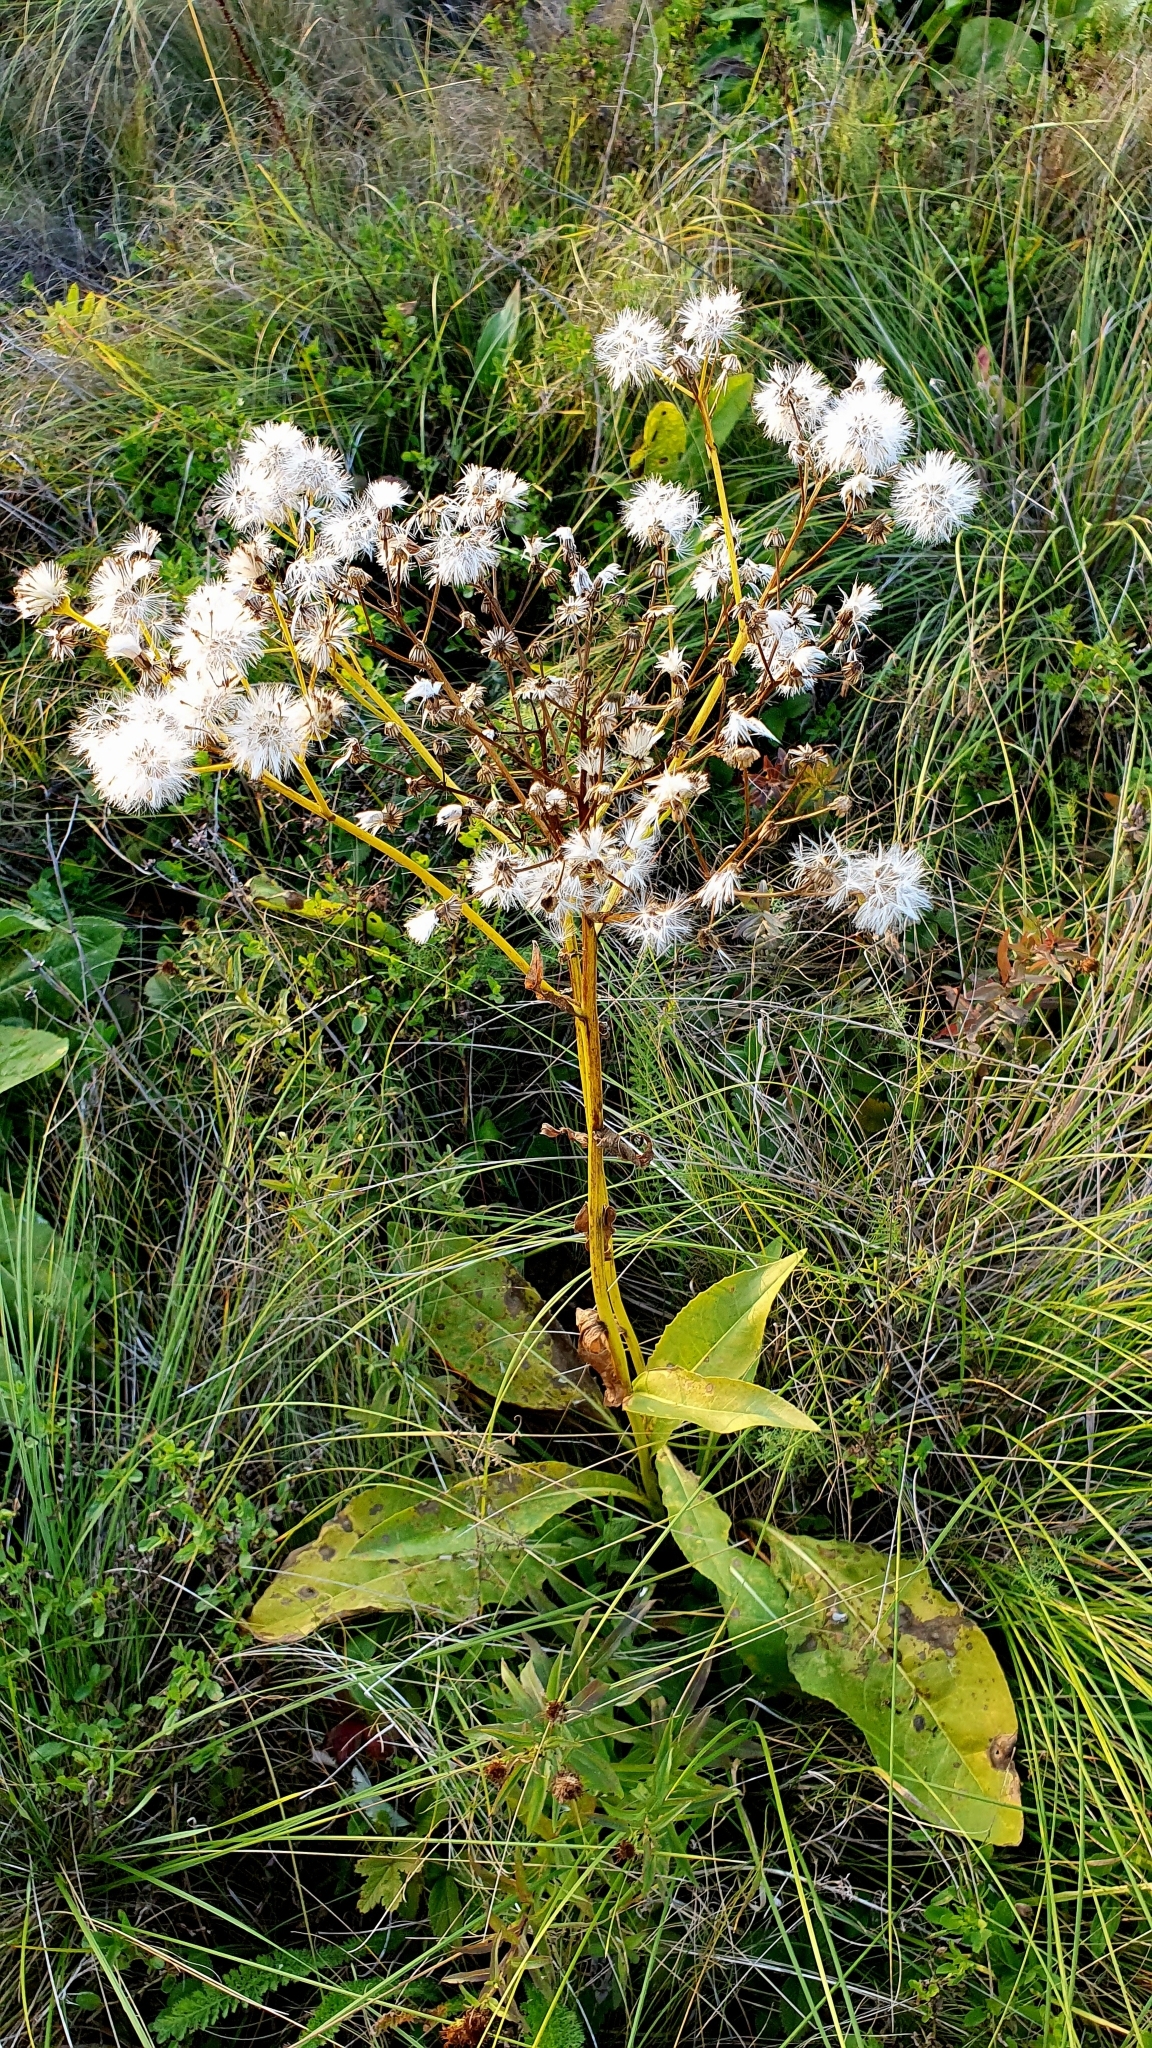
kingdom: Plantae
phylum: Tracheophyta
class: Magnoliopsida
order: Asterales
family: Asteraceae
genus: Senecio
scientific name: Senecio doria
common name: Golden ragwort
